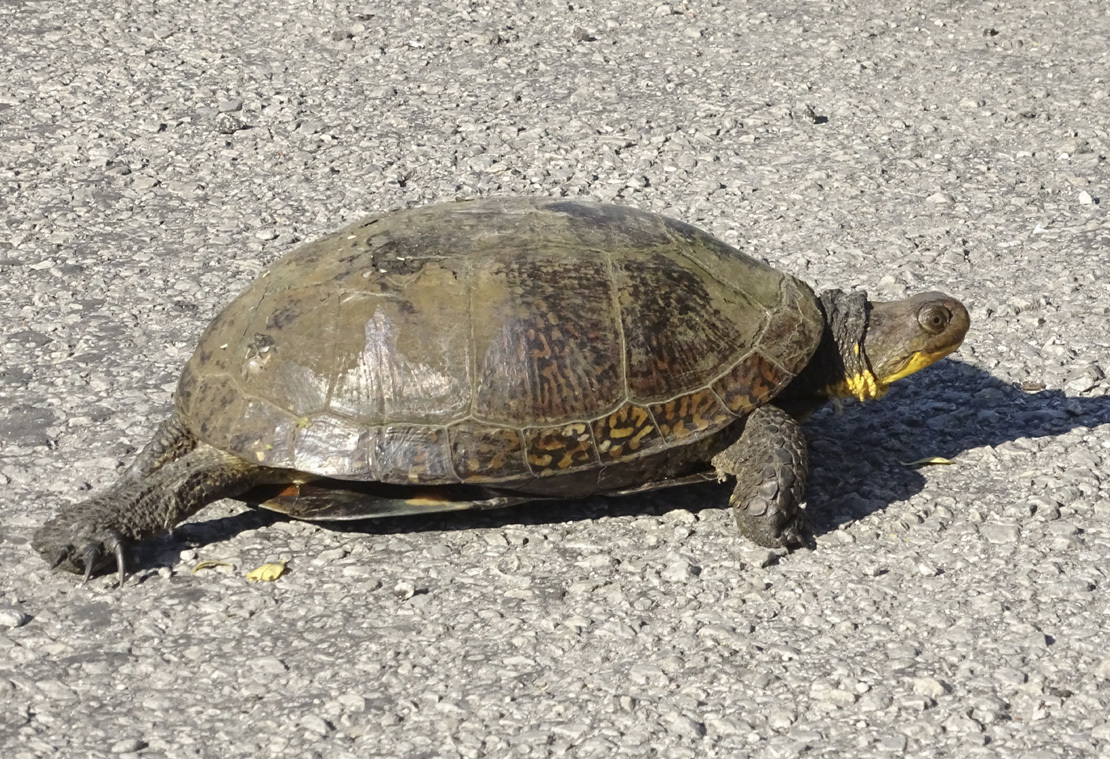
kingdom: Animalia
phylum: Chordata
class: Testudines
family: Emydidae
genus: Emys
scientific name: Emys blandingii
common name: Blanding's turtle
